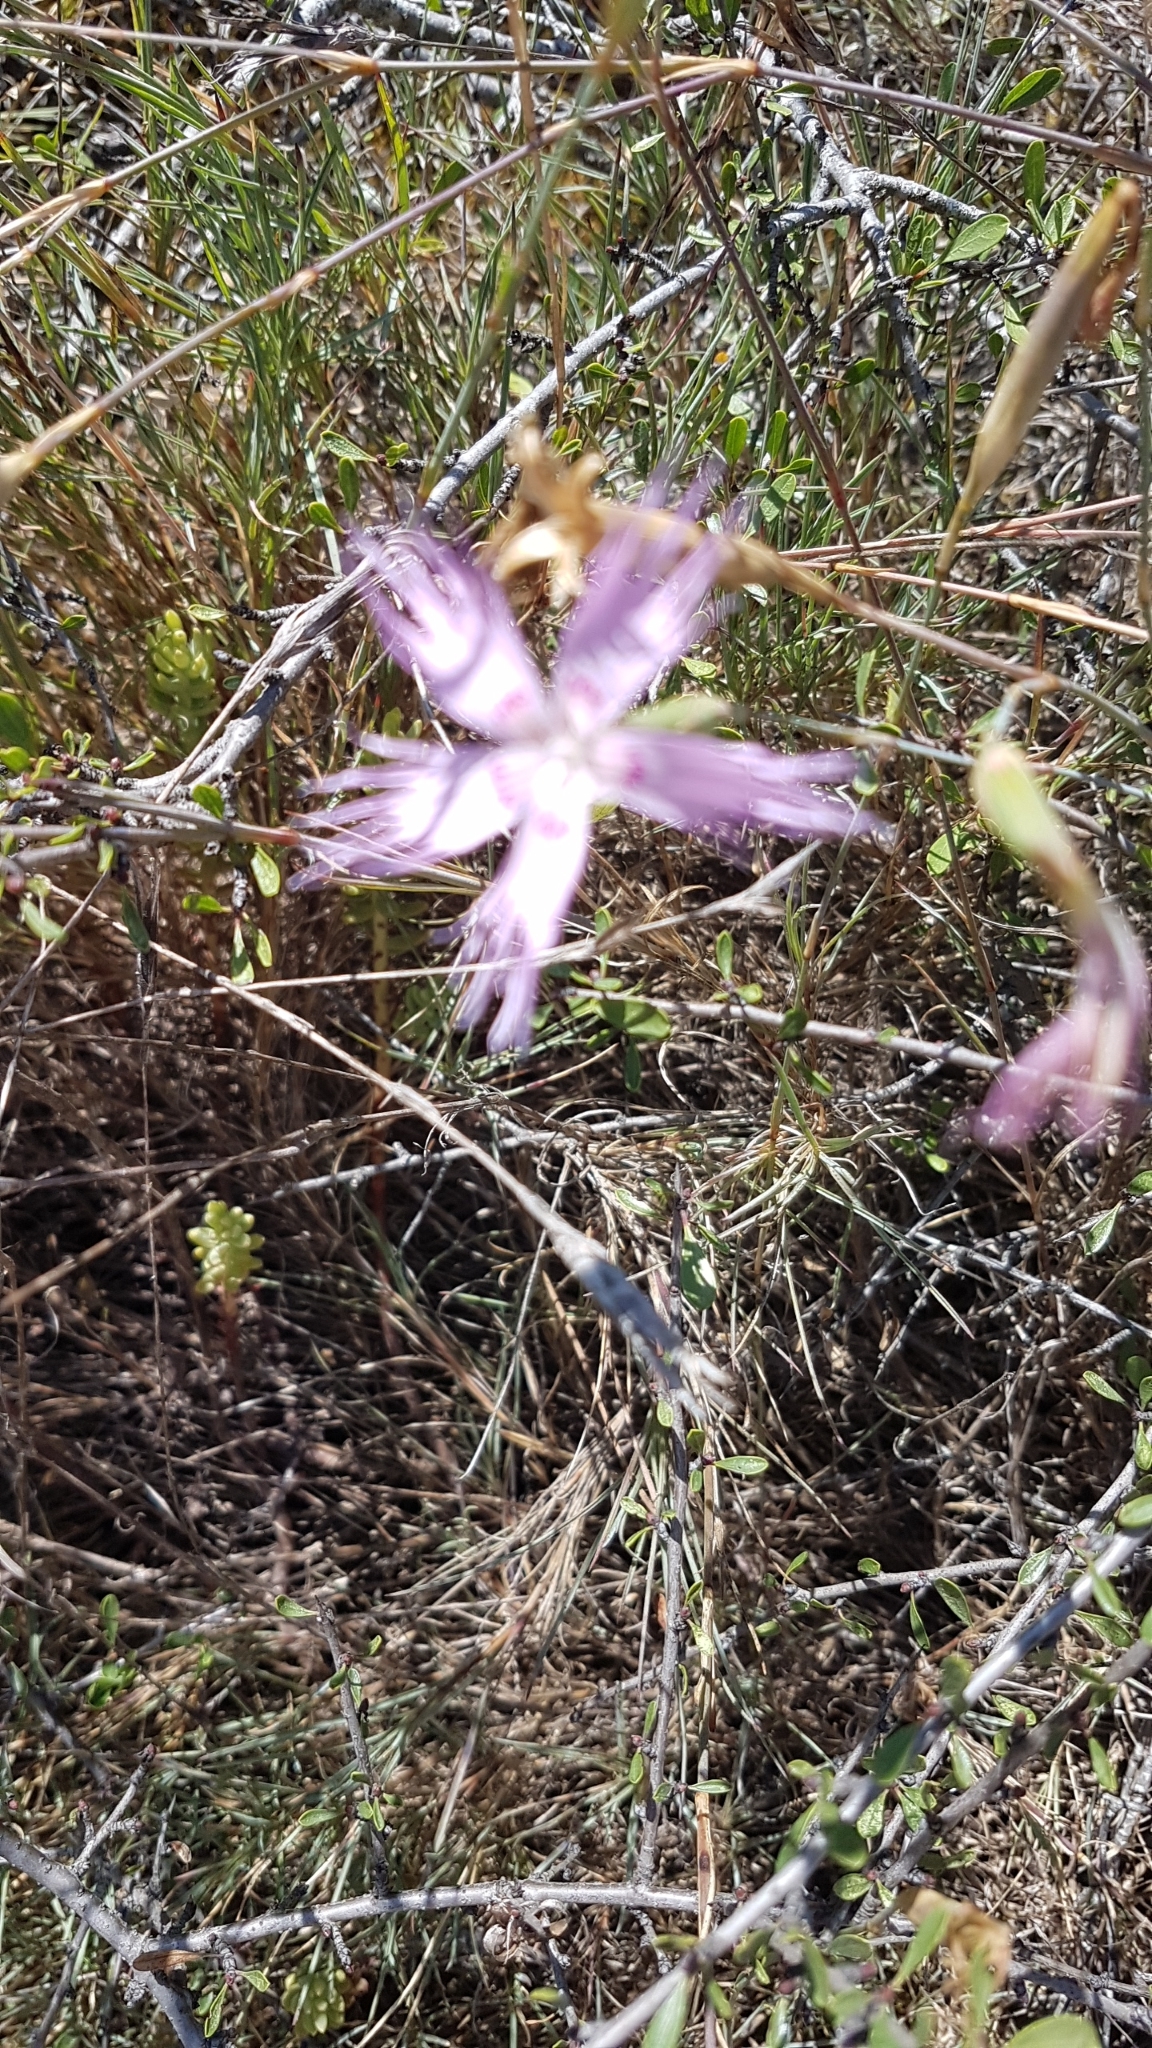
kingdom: Plantae
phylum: Tracheophyta
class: Magnoliopsida
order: Caryophyllales
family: Caryophyllaceae
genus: Dianthus
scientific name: Dianthus broteri
